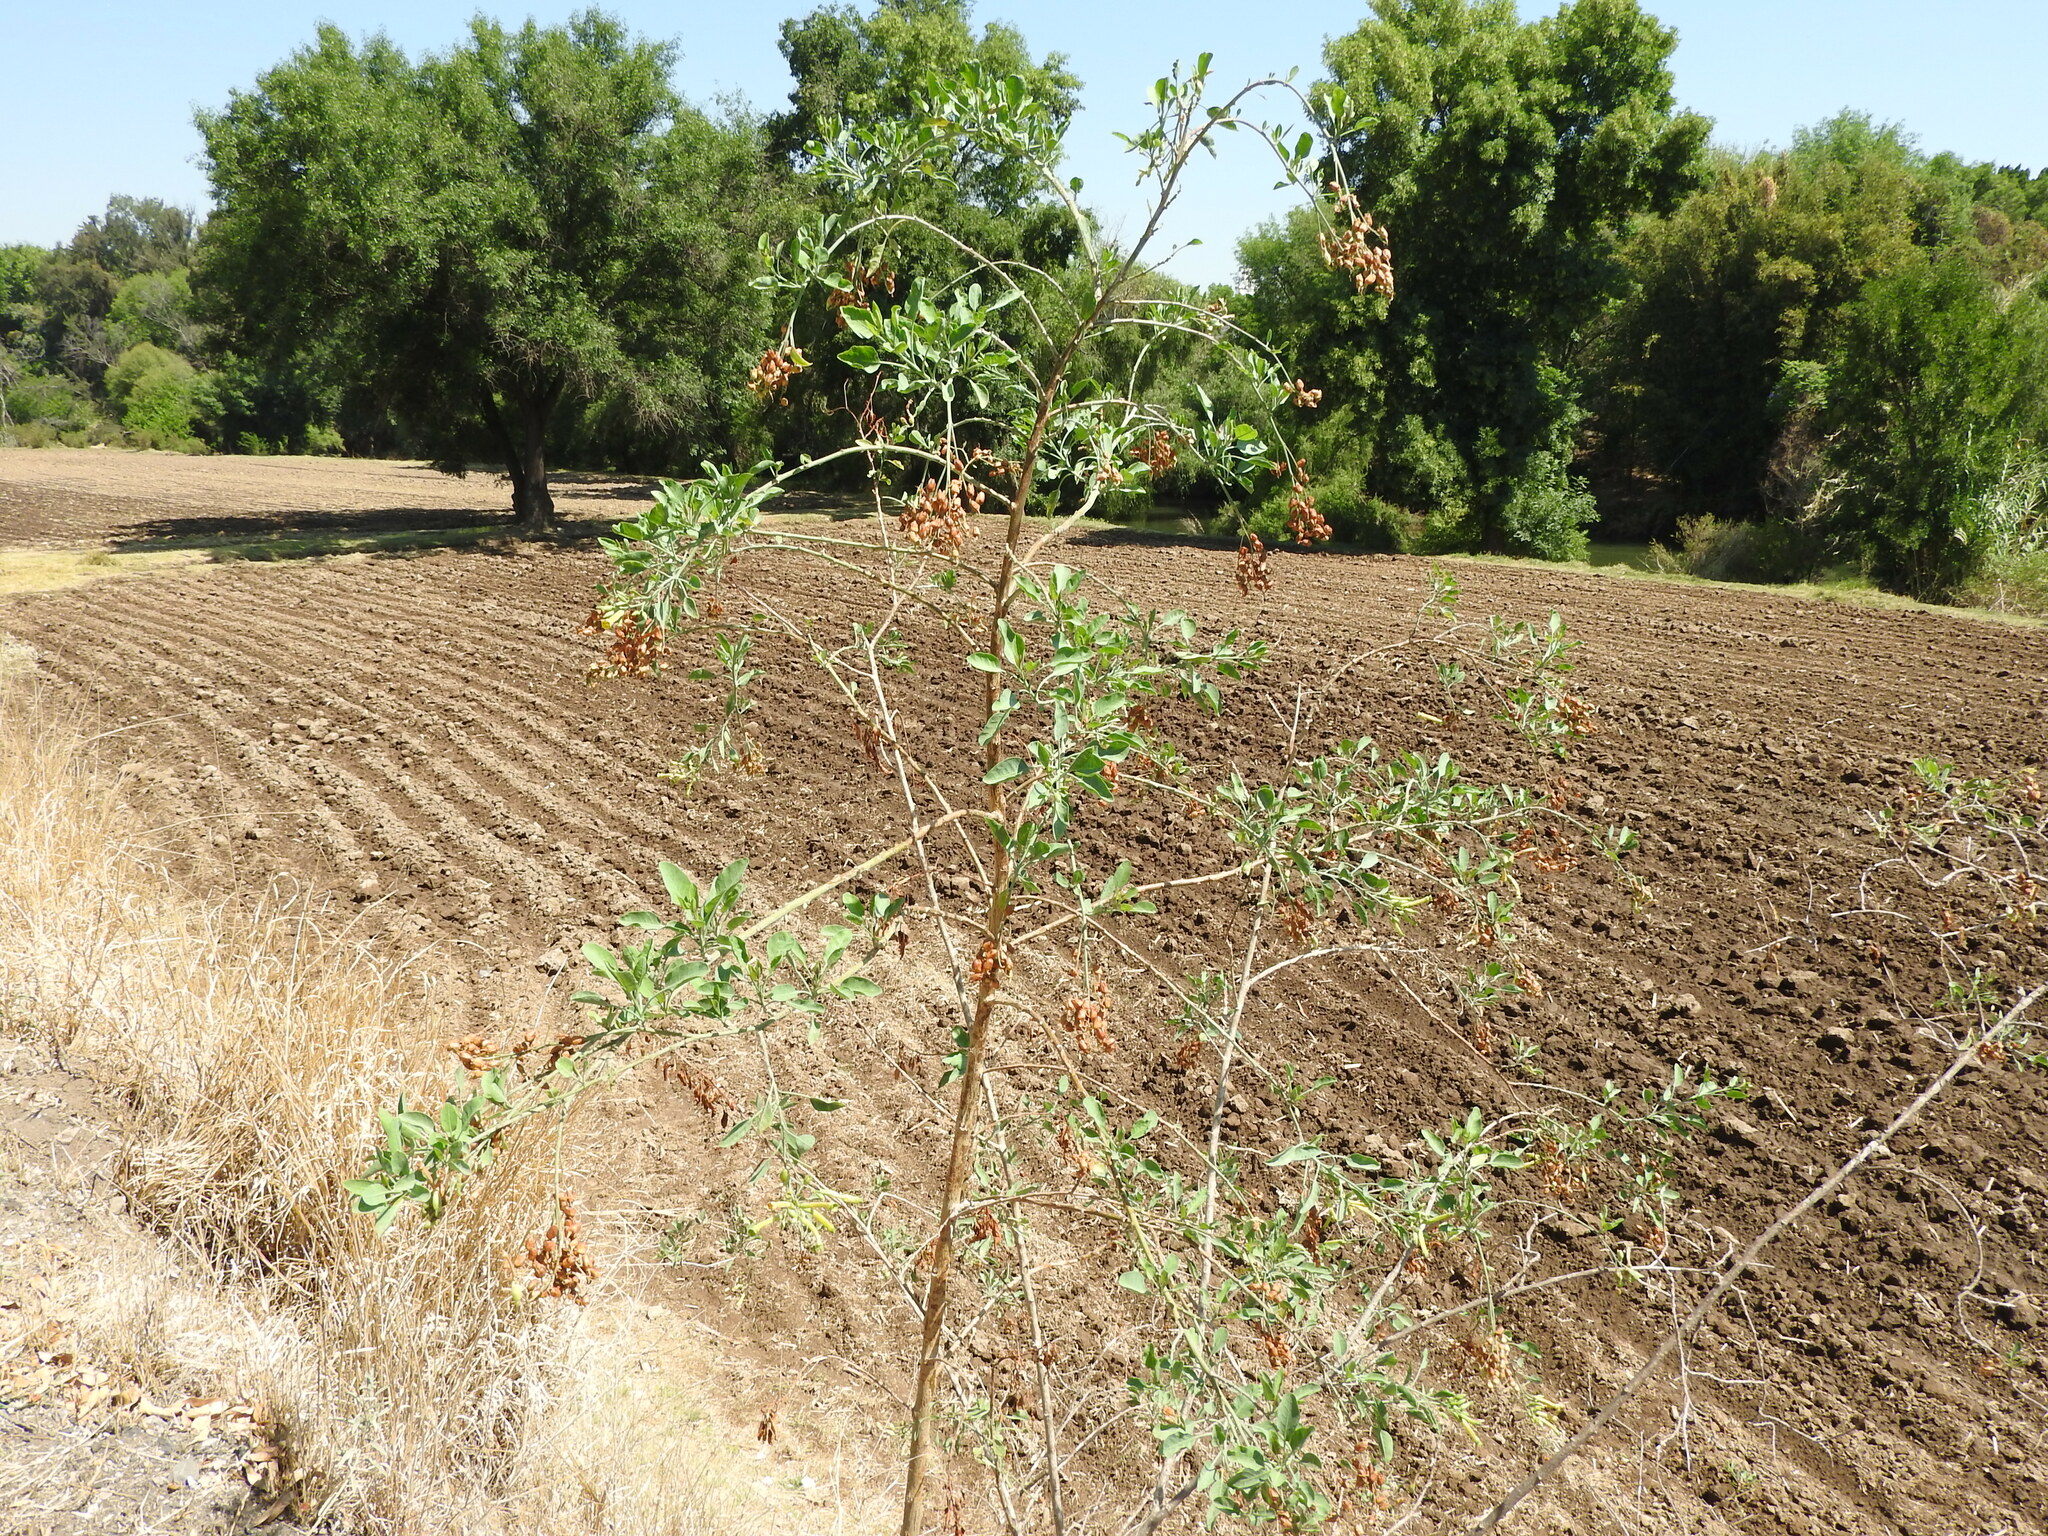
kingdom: Plantae
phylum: Tracheophyta
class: Magnoliopsida
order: Solanales
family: Solanaceae
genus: Nicotiana
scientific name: Nicotiana glauca
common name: Tree tobacco
